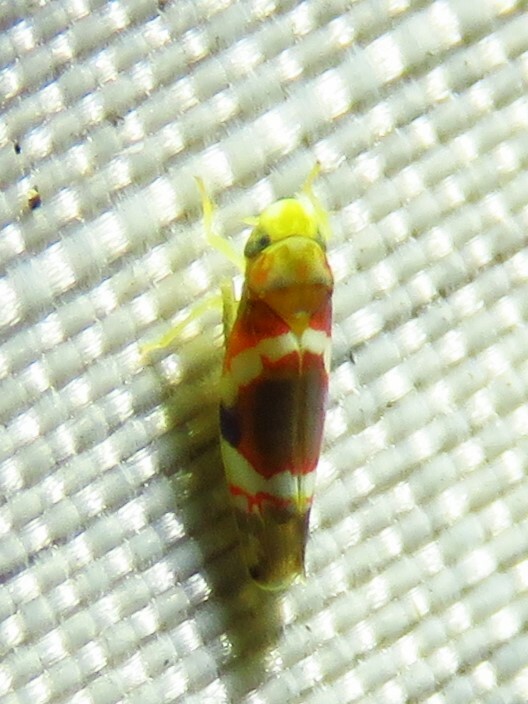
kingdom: Animalia
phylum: Arthropoda
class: Insecta
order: Hemiptera
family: Cicadellidae
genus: Erythroneura
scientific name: Erythroneura vitis
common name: Grapevine leafhopper
